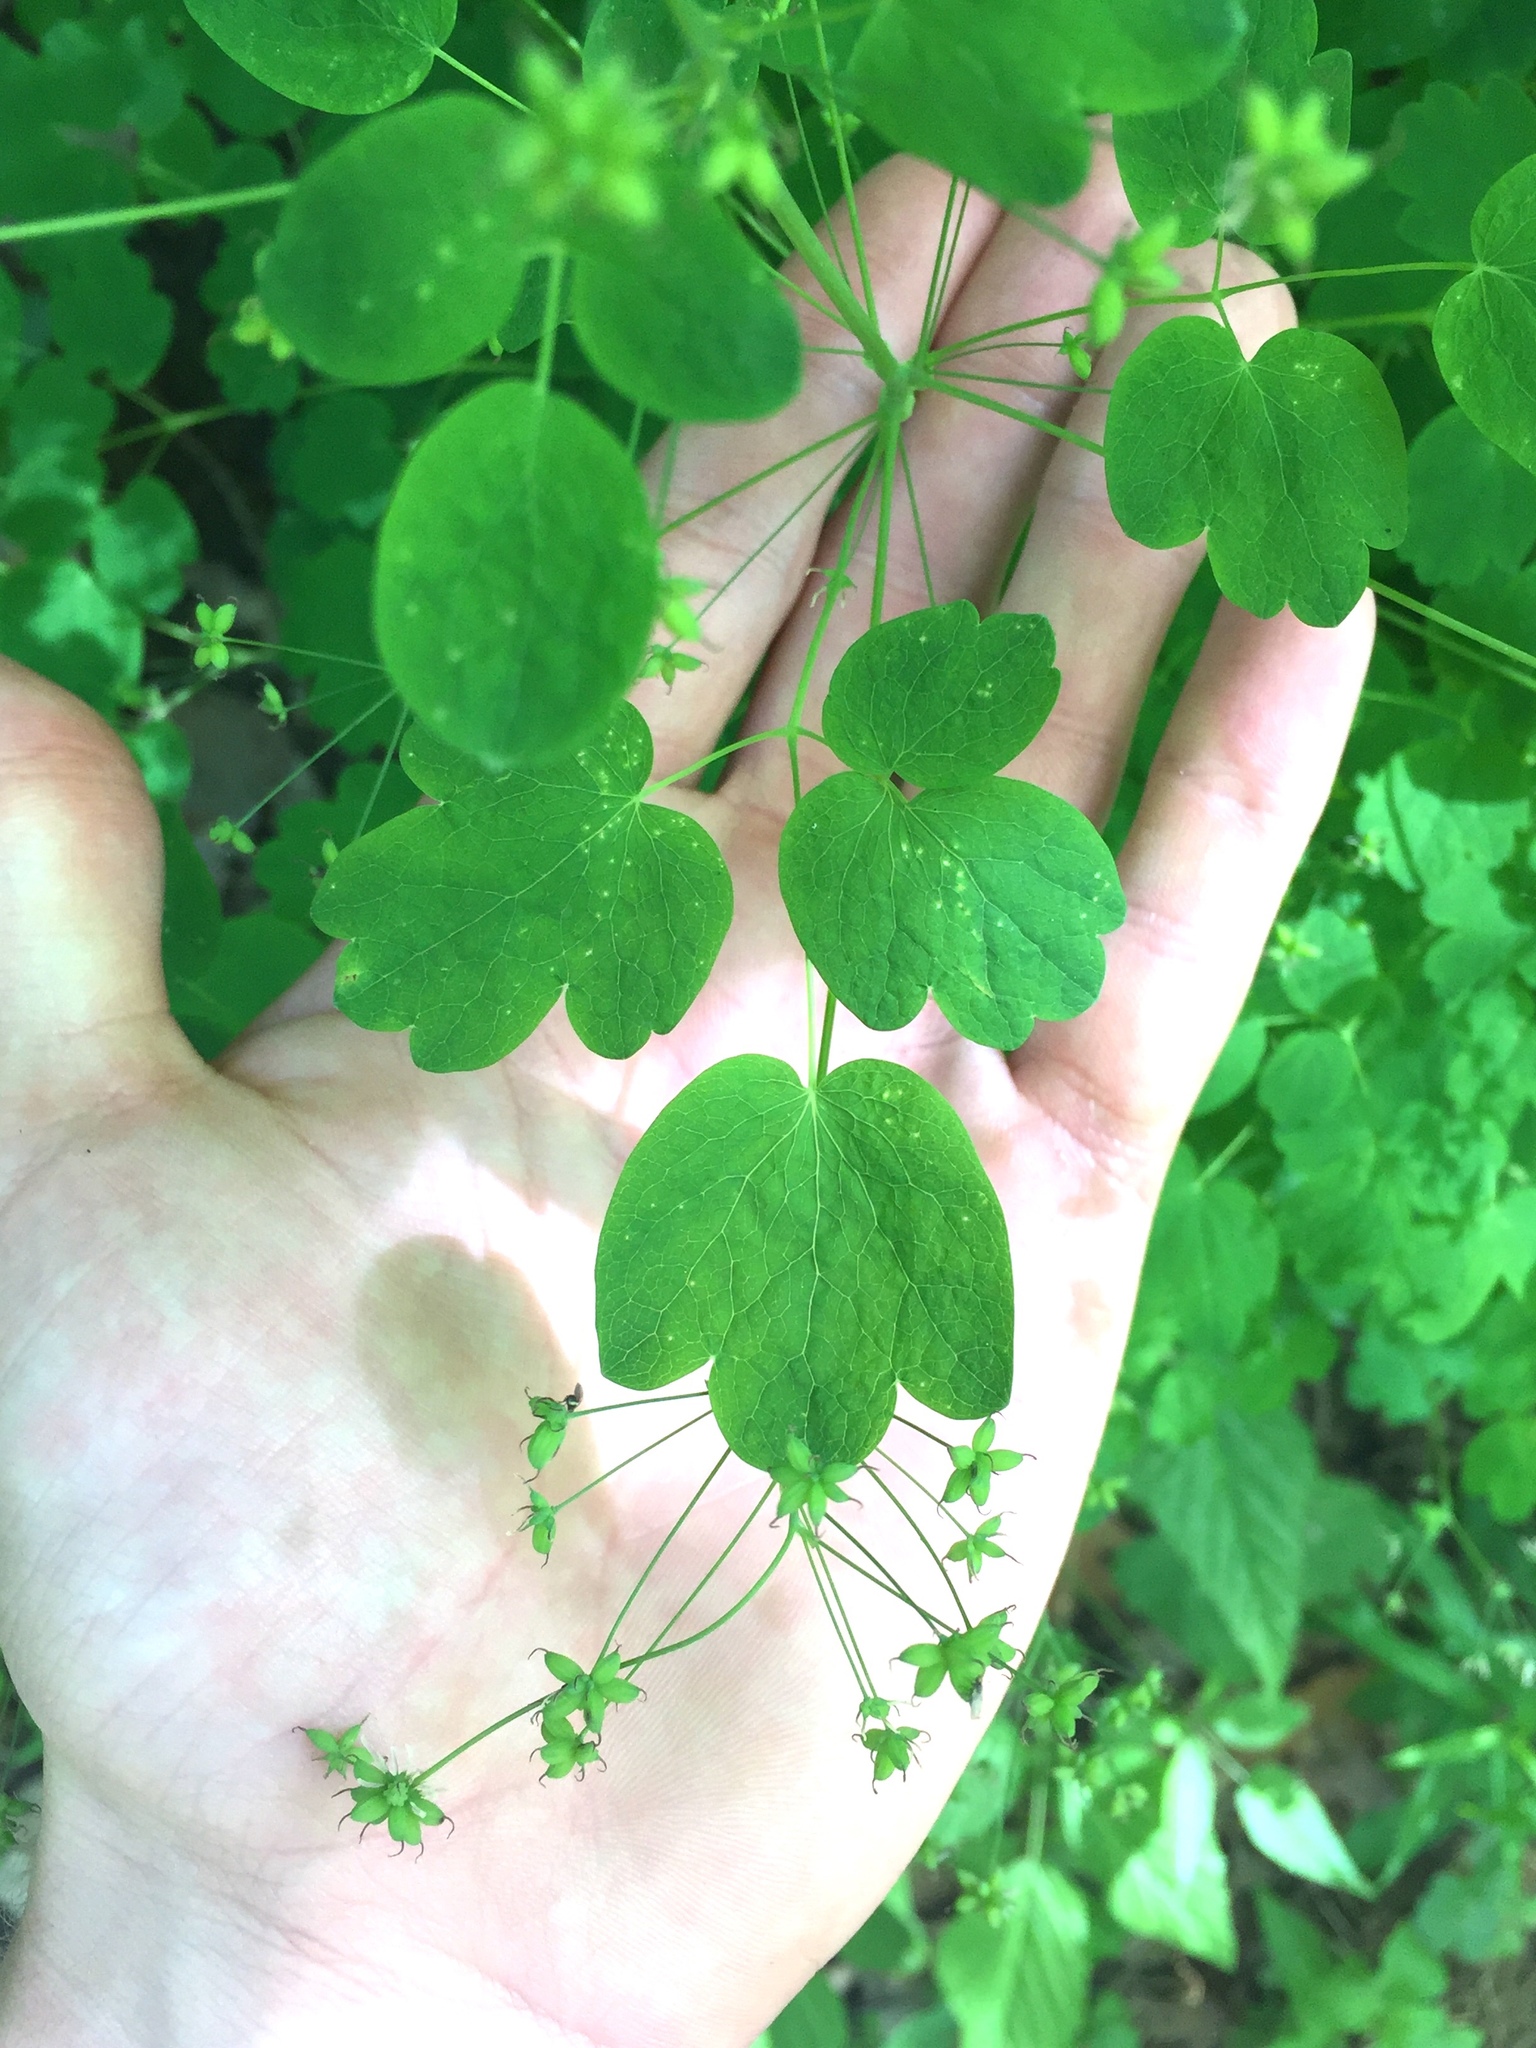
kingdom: Plantae
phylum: Tracheophyta
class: Magnoliopsida
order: Ranunculales
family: Ranunculaceae
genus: Thalictrum
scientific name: Thalictrum dioicum
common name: Early meadow-rue
